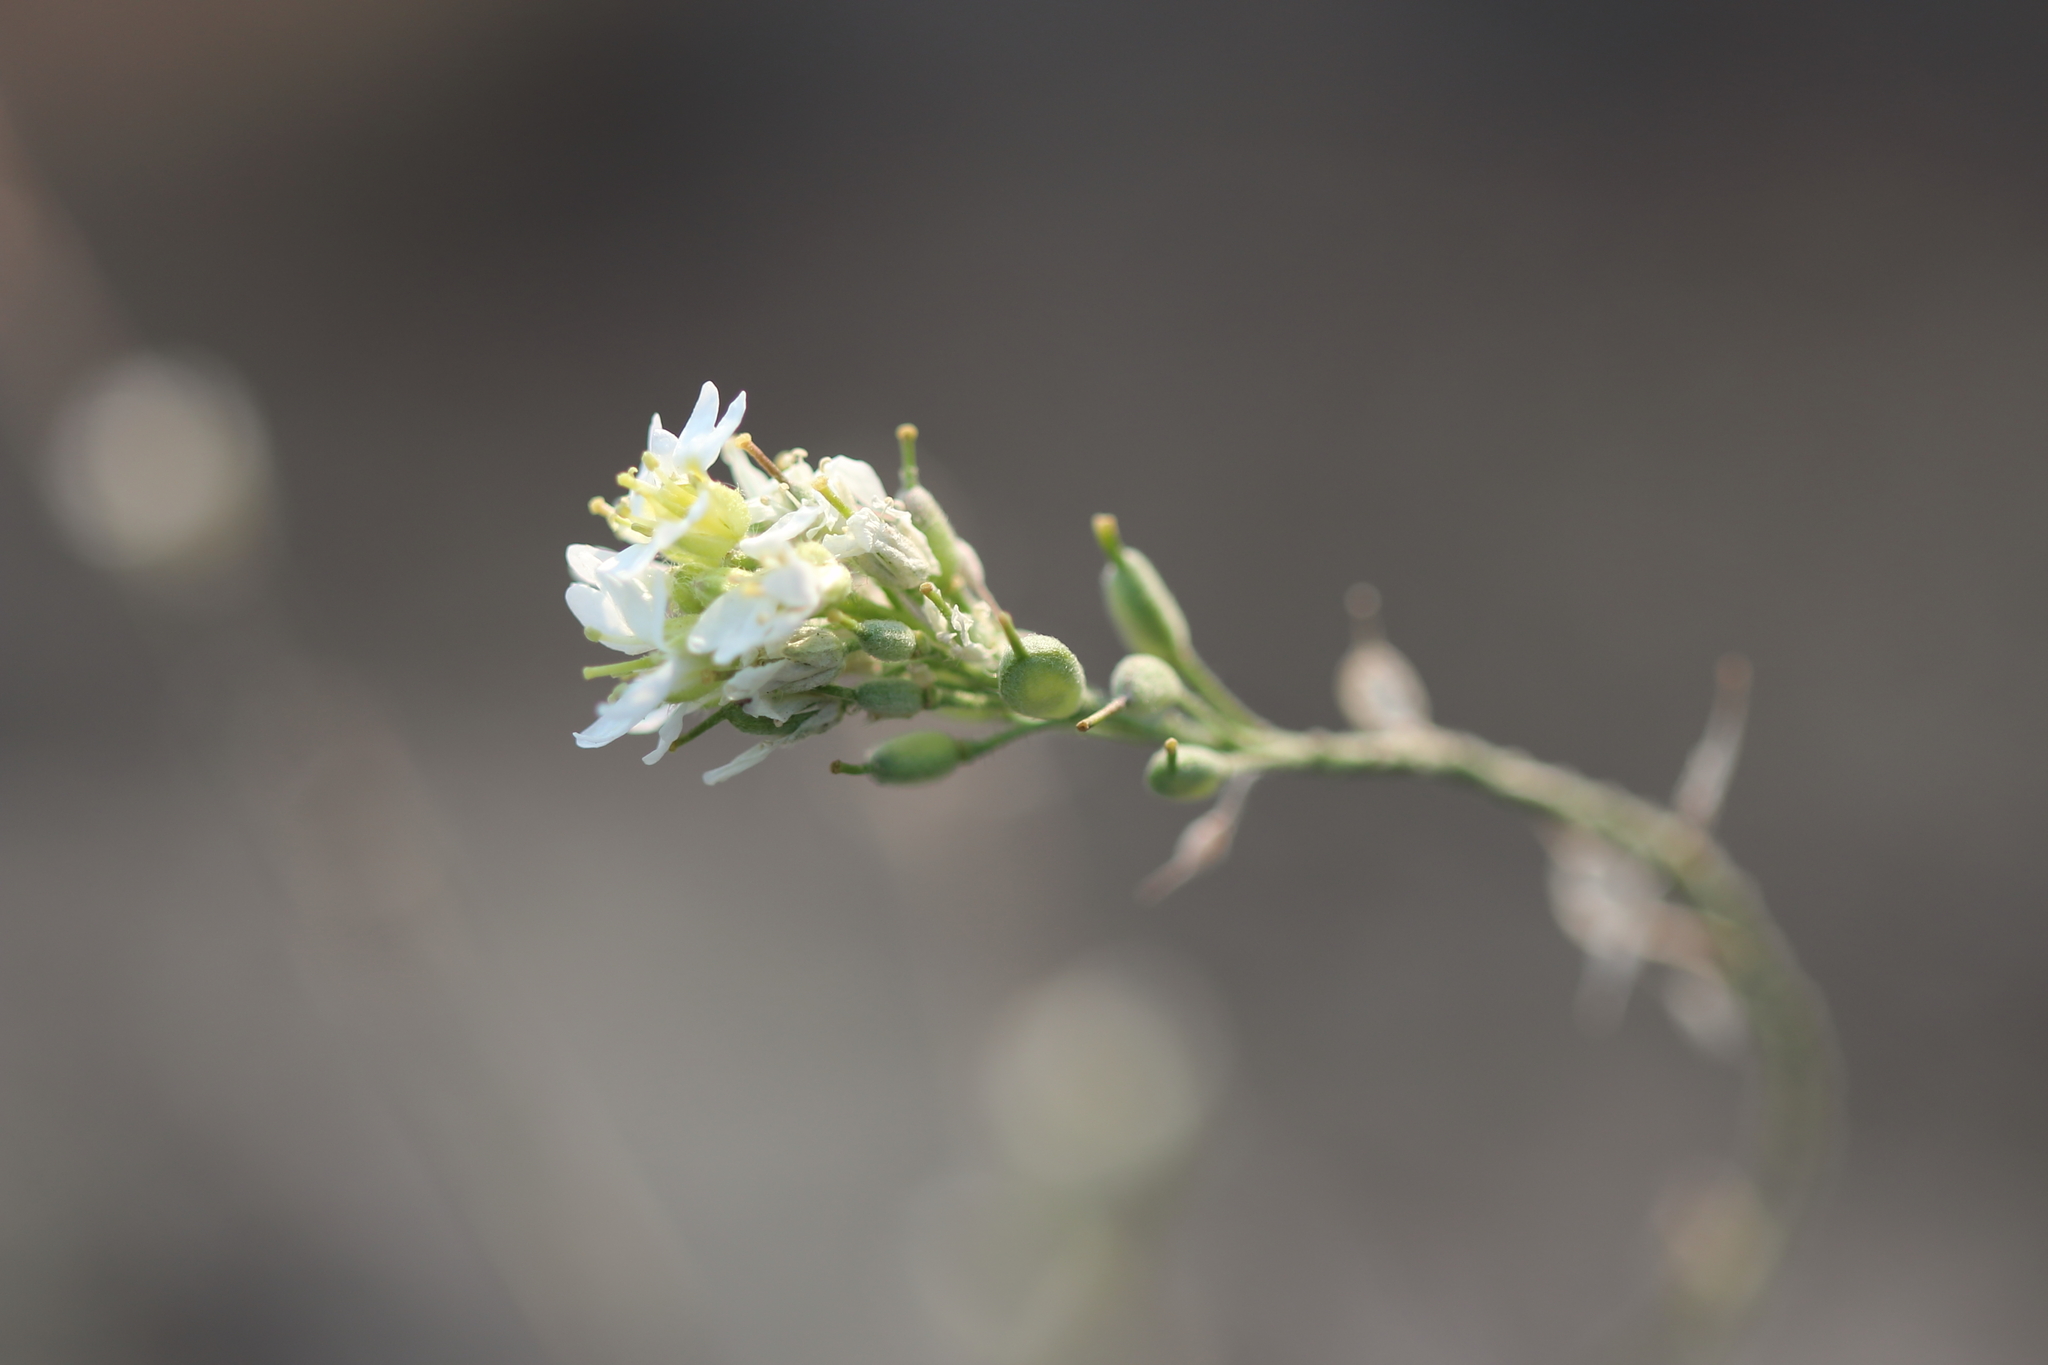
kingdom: Plantae
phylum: Tracheophyta
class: Magnoliopsida
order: Brassicales
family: Brassicaceae
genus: Berteroa
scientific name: Berteroa incana
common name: Hoary alison
